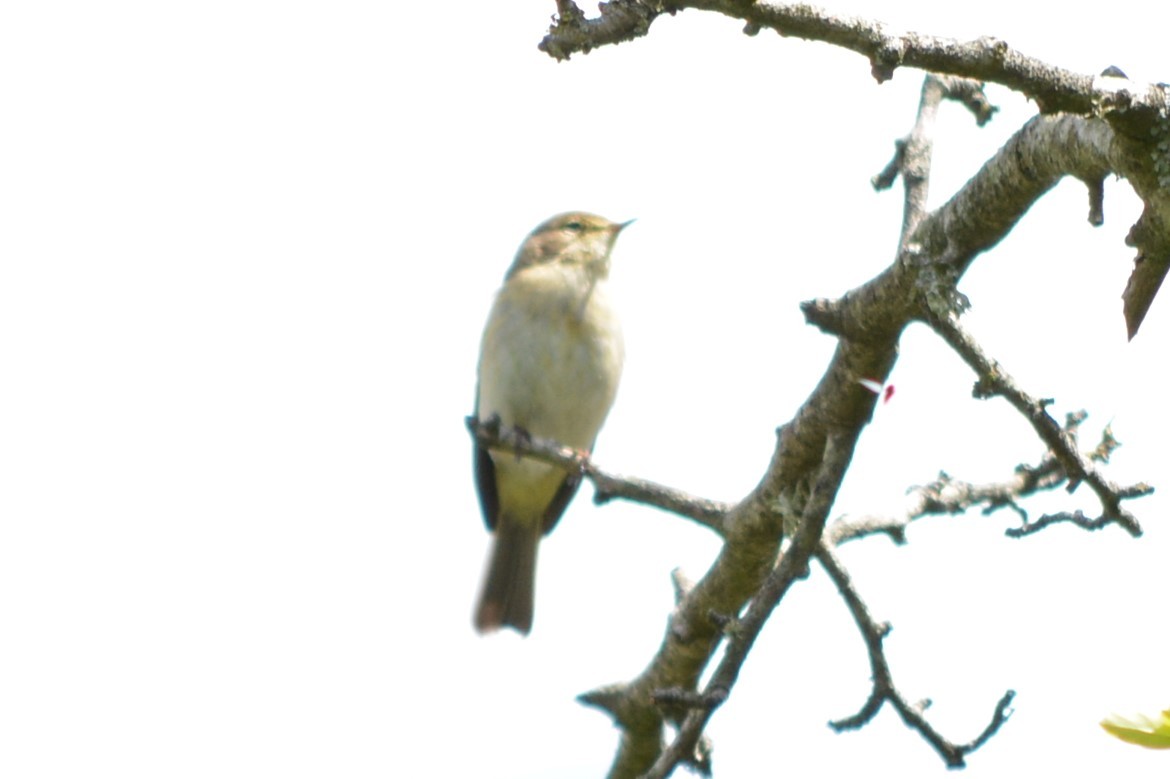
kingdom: Animalia
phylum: Chordata
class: Aves
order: Passeriformes
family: Phylloscopidae
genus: Phylloscopus
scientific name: Phylloscopus collybita
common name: Common chiffchaff
